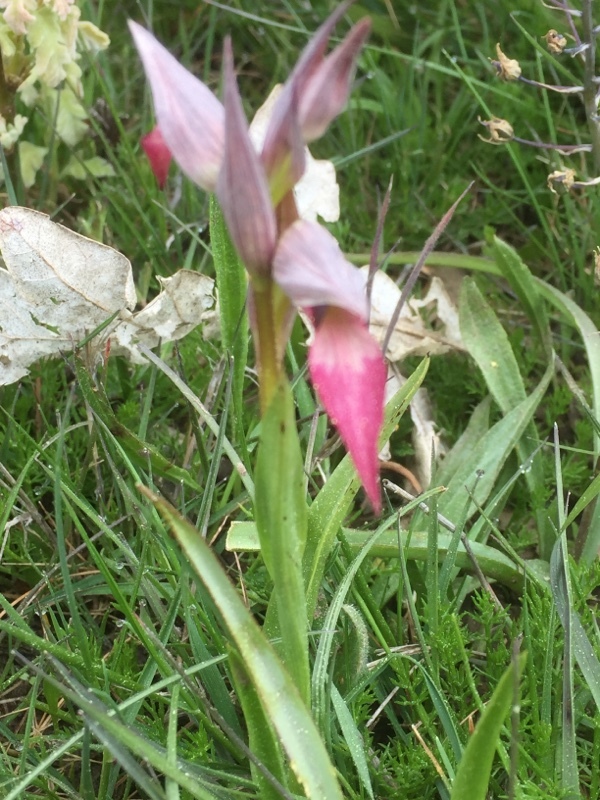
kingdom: Plantae
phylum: Tracheophyta
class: Liliopsida
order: Asparagales
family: Orchidaceae
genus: Serapias
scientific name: Serapias lingua
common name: Tongue-orchid
